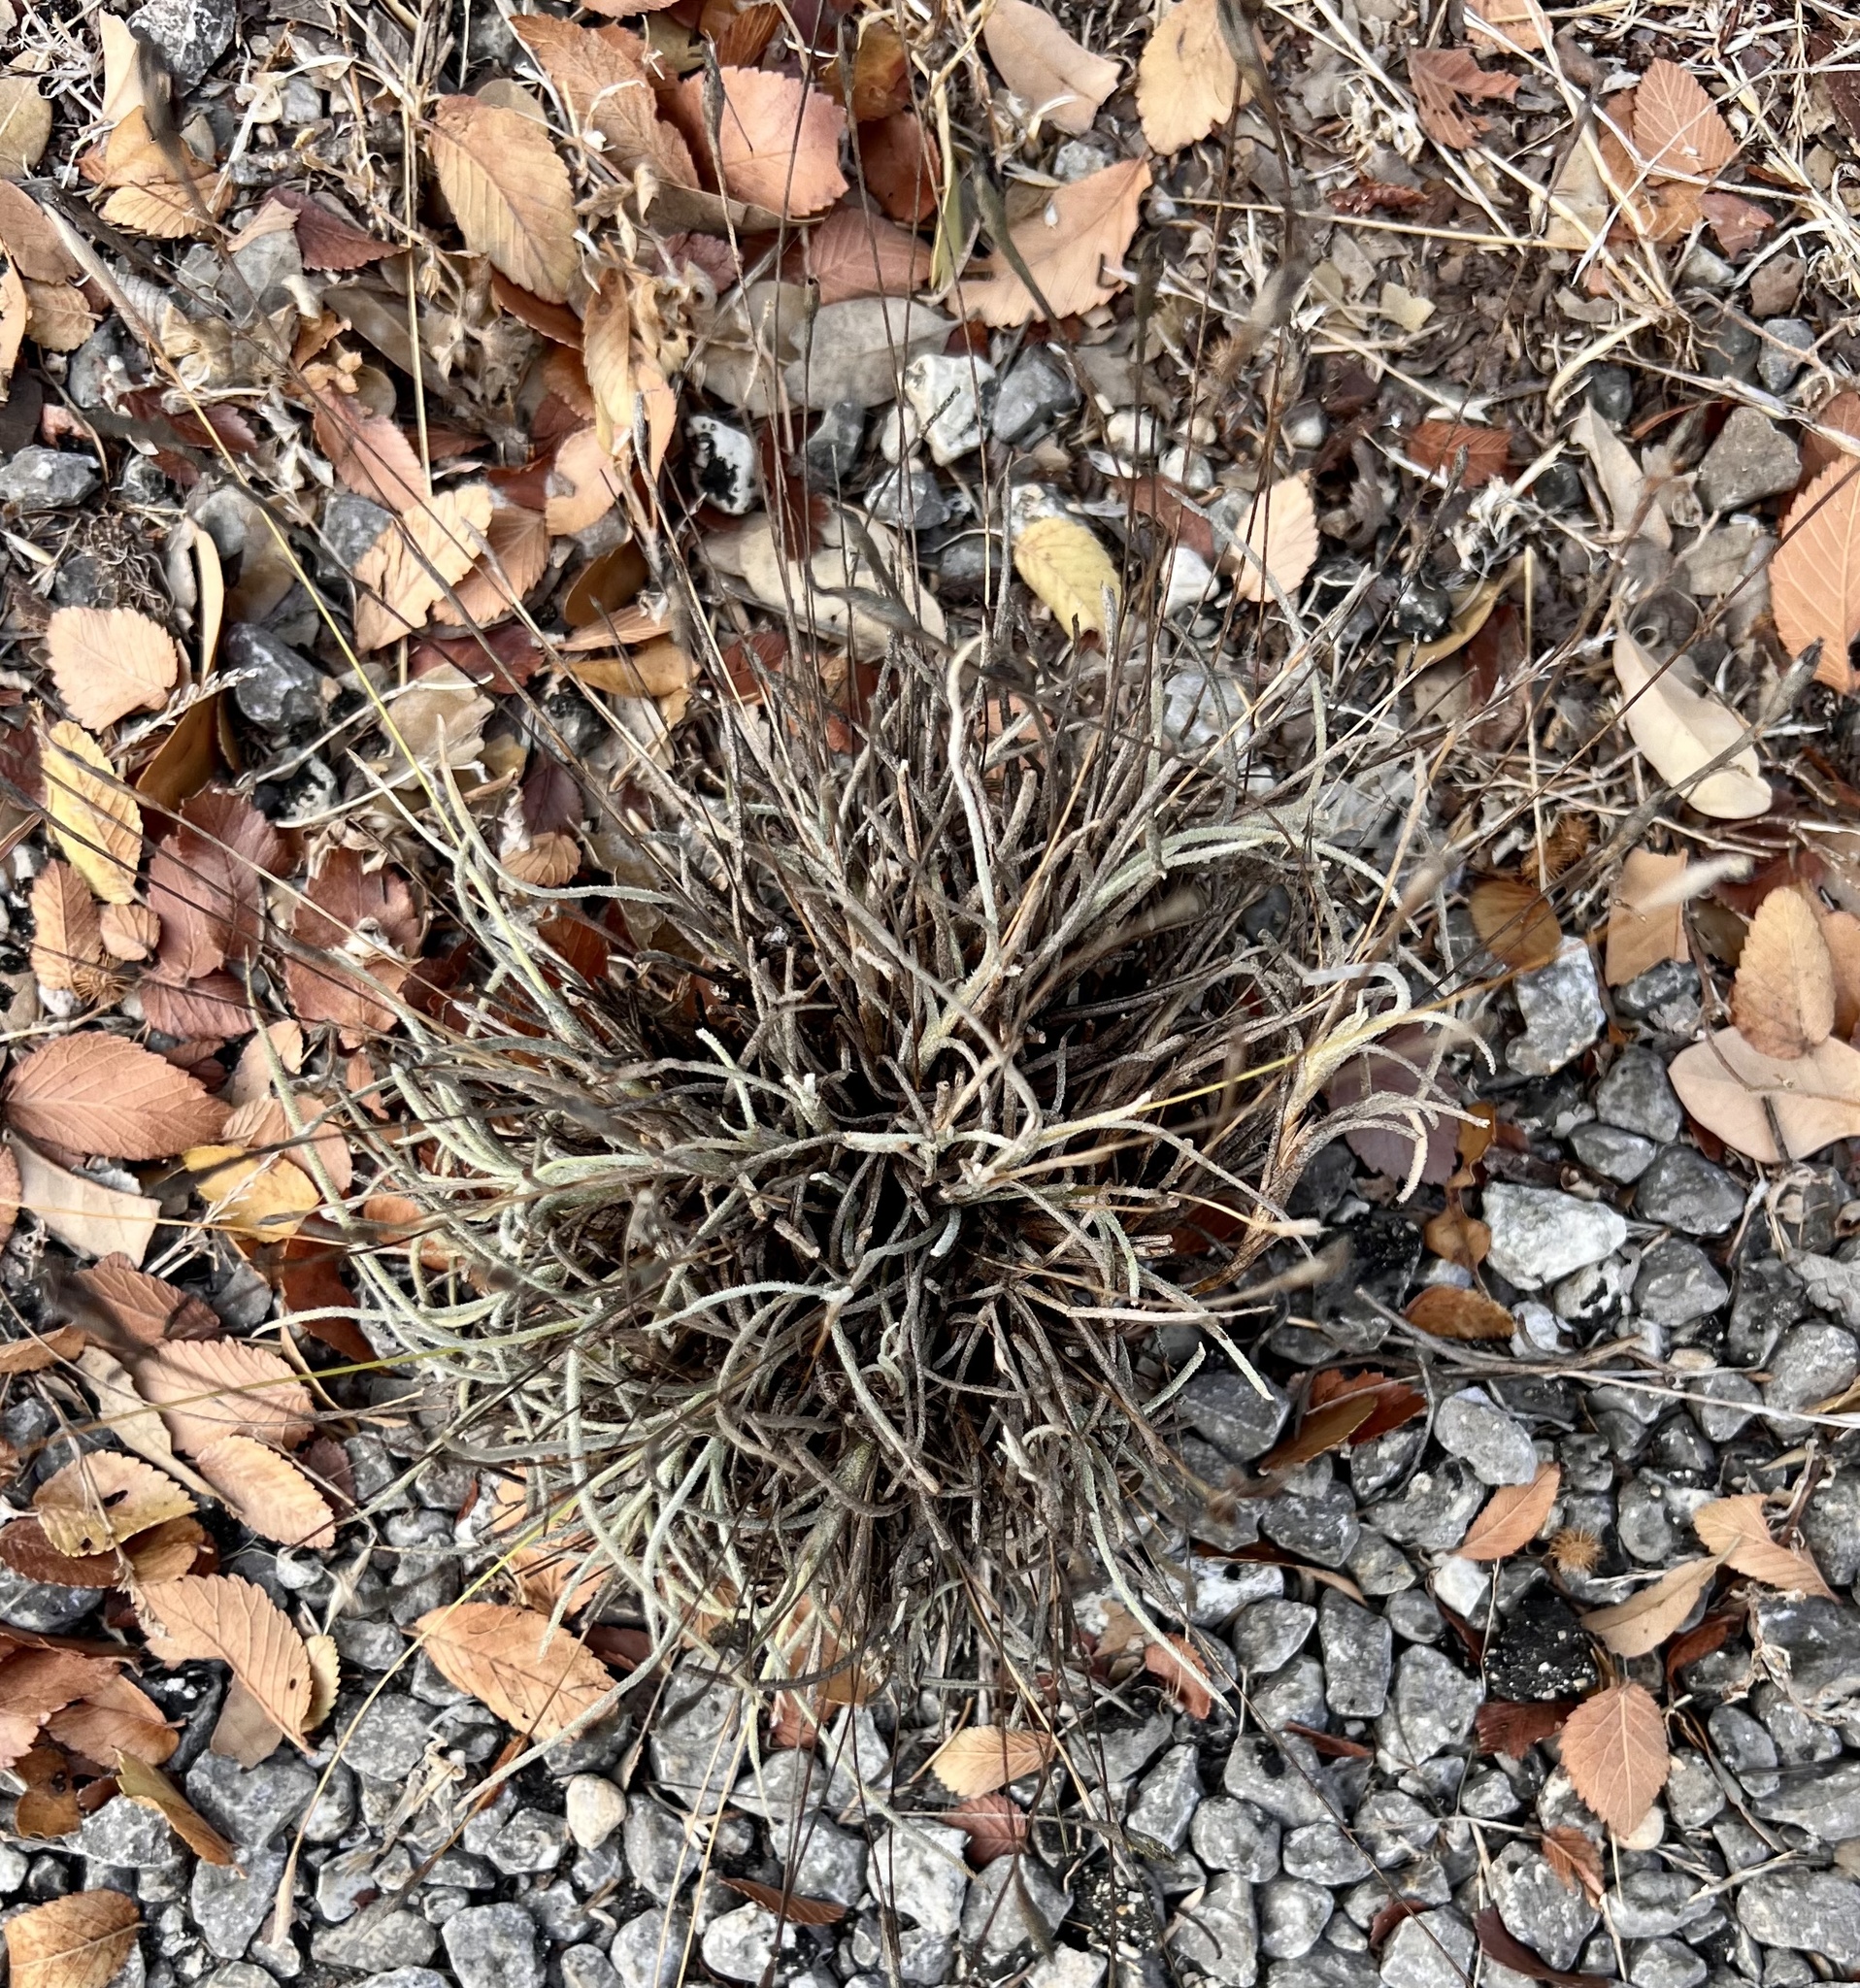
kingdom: Plantae
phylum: Tracheophyta
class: Liliopsida
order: Poales
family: Bromeliaceae
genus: Tillandsia
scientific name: Tillandsia recurvata
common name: Small ballmoss
